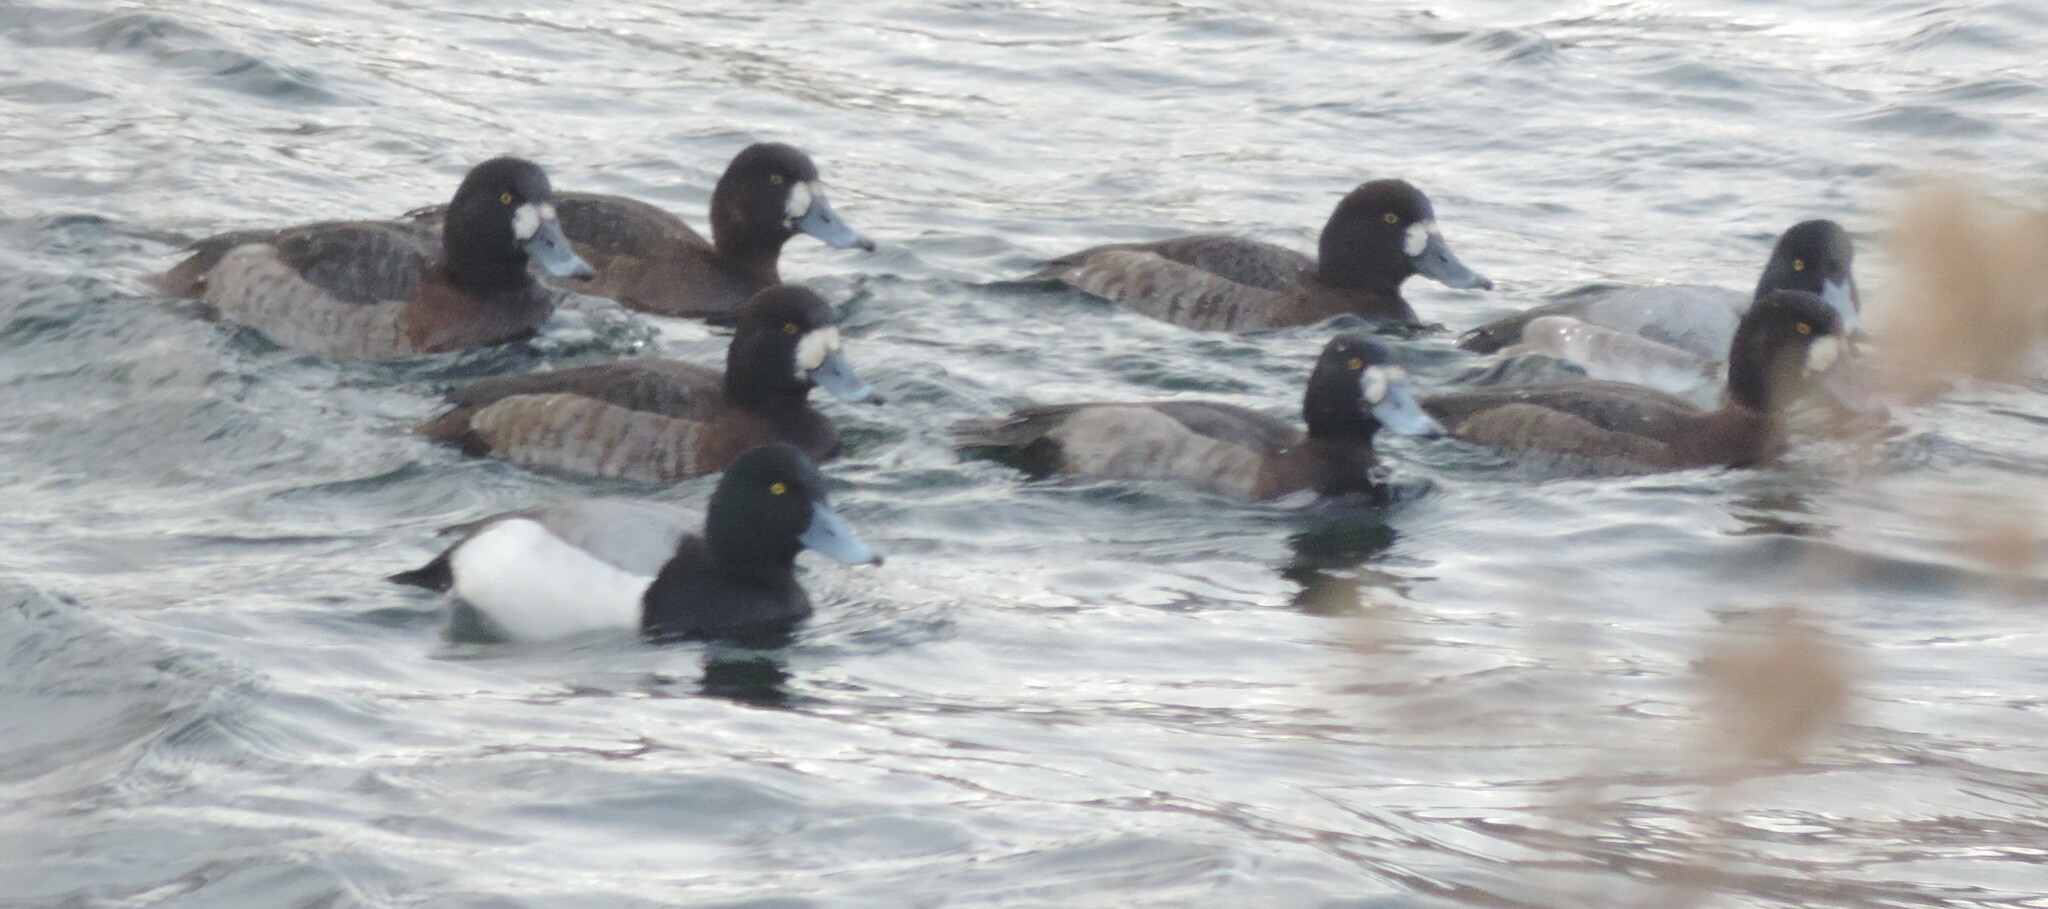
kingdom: Animalia
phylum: Chordata
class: Aves
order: Anseriformes
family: Anatidae
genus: Aythya
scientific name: Aythya marila
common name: Greater scaup
